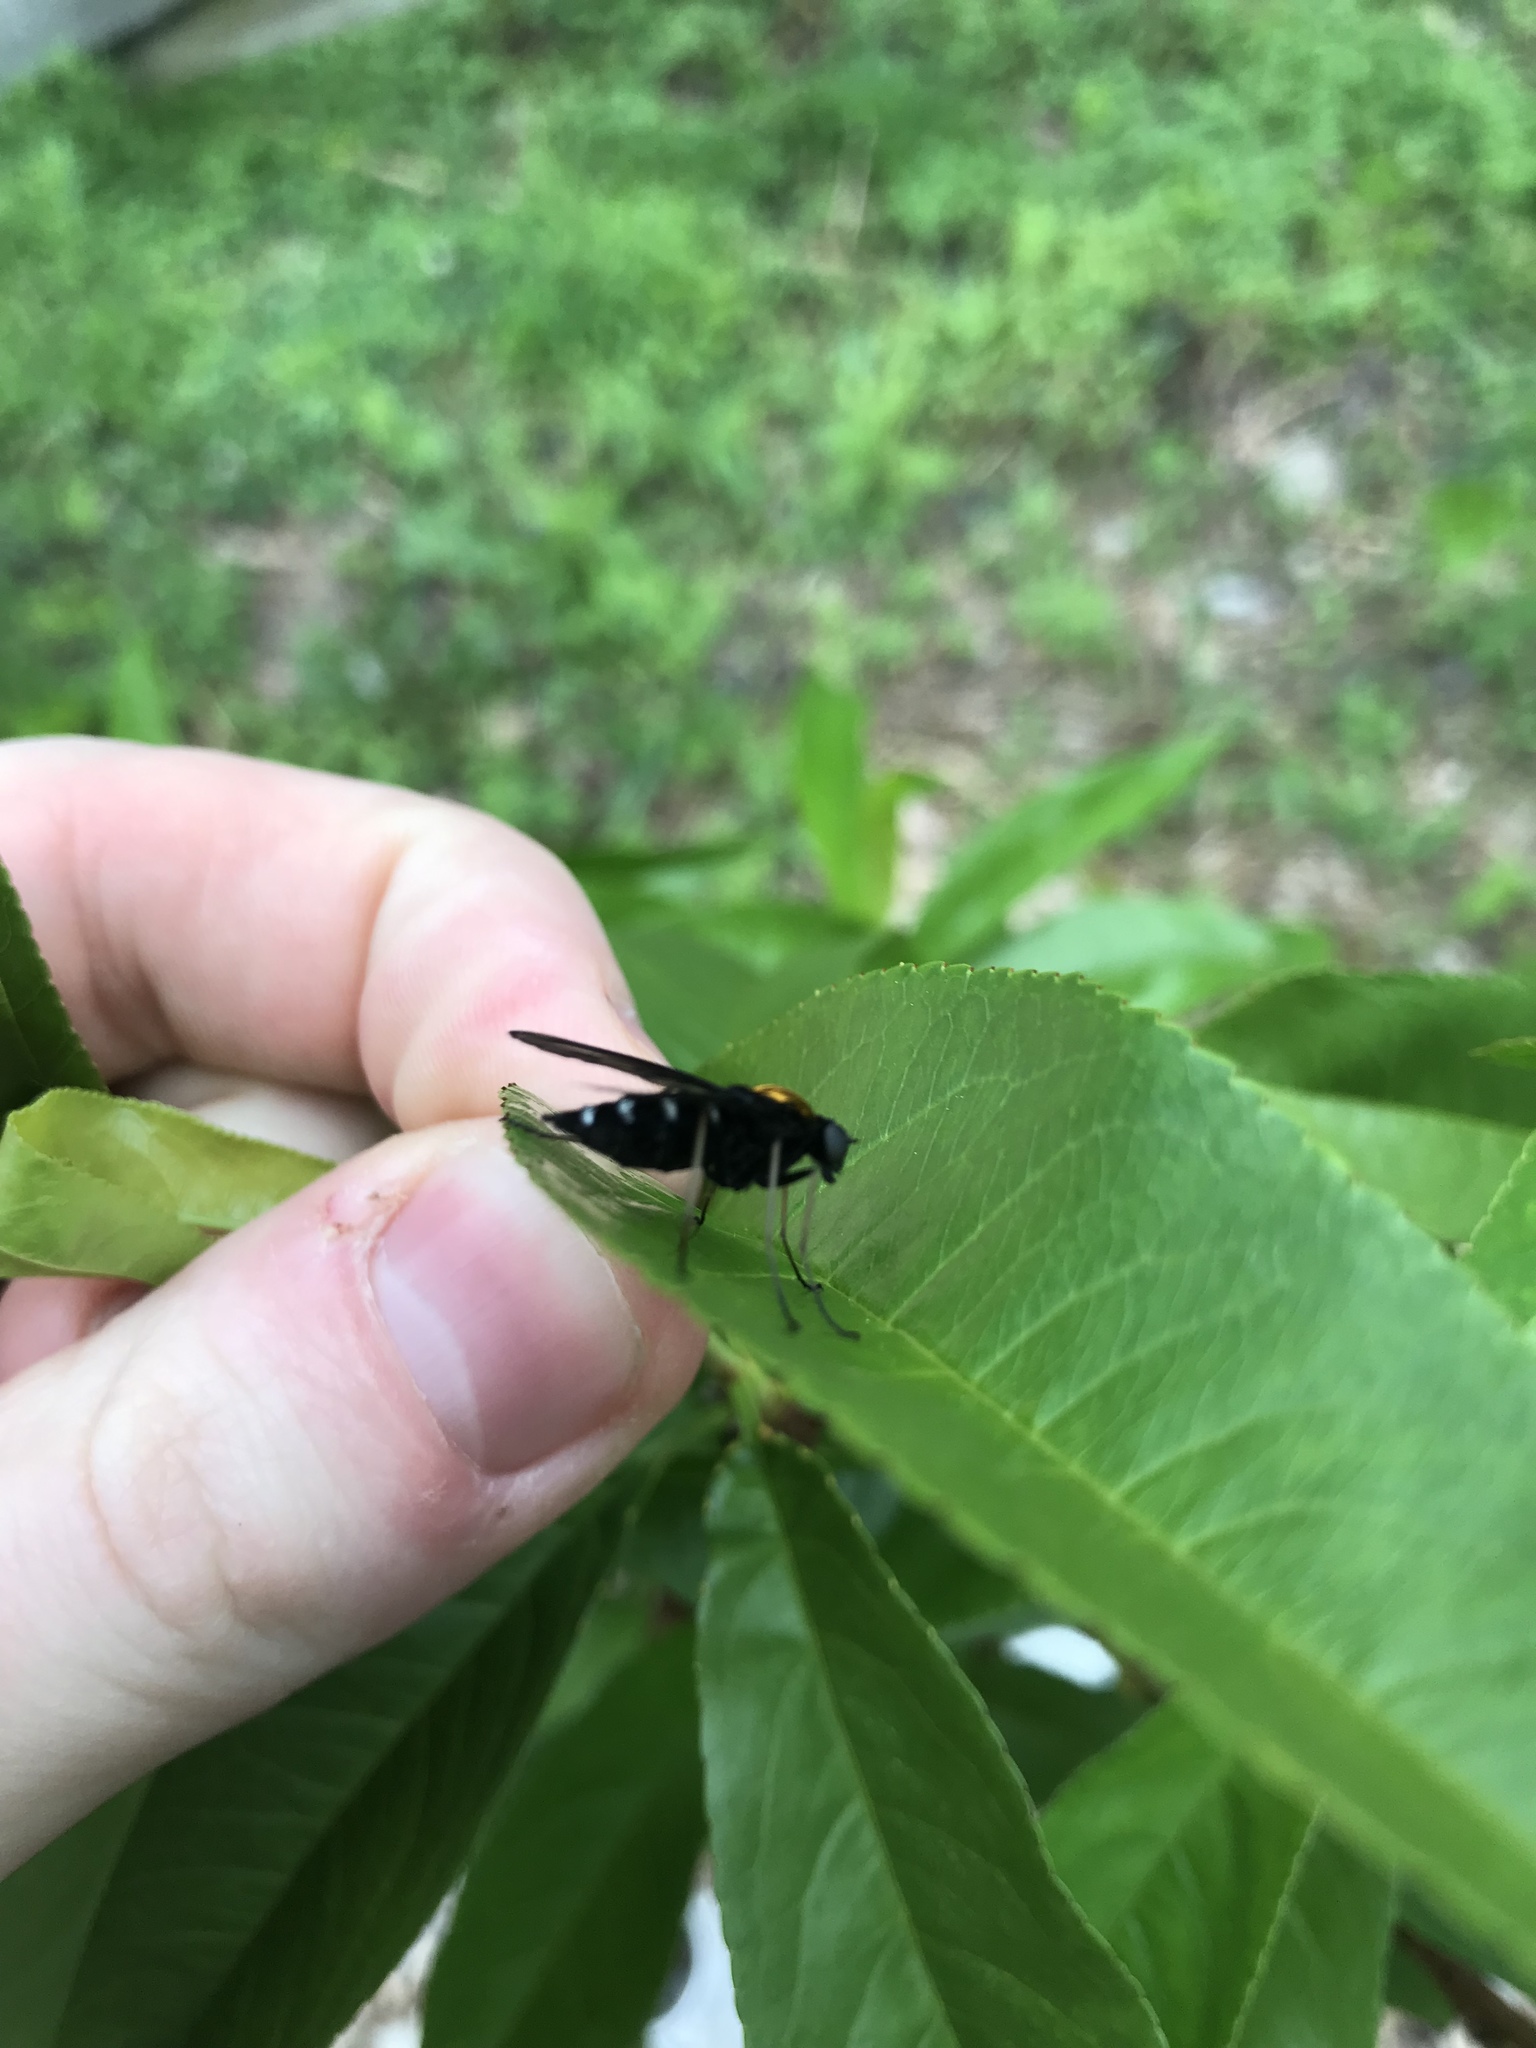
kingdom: Animalia
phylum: Arthropoda
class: Insecta
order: Diptera
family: Rhagionidae
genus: Chrysopilus
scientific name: Chrysopilus thoracicus
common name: Golden-backed snipe fly
